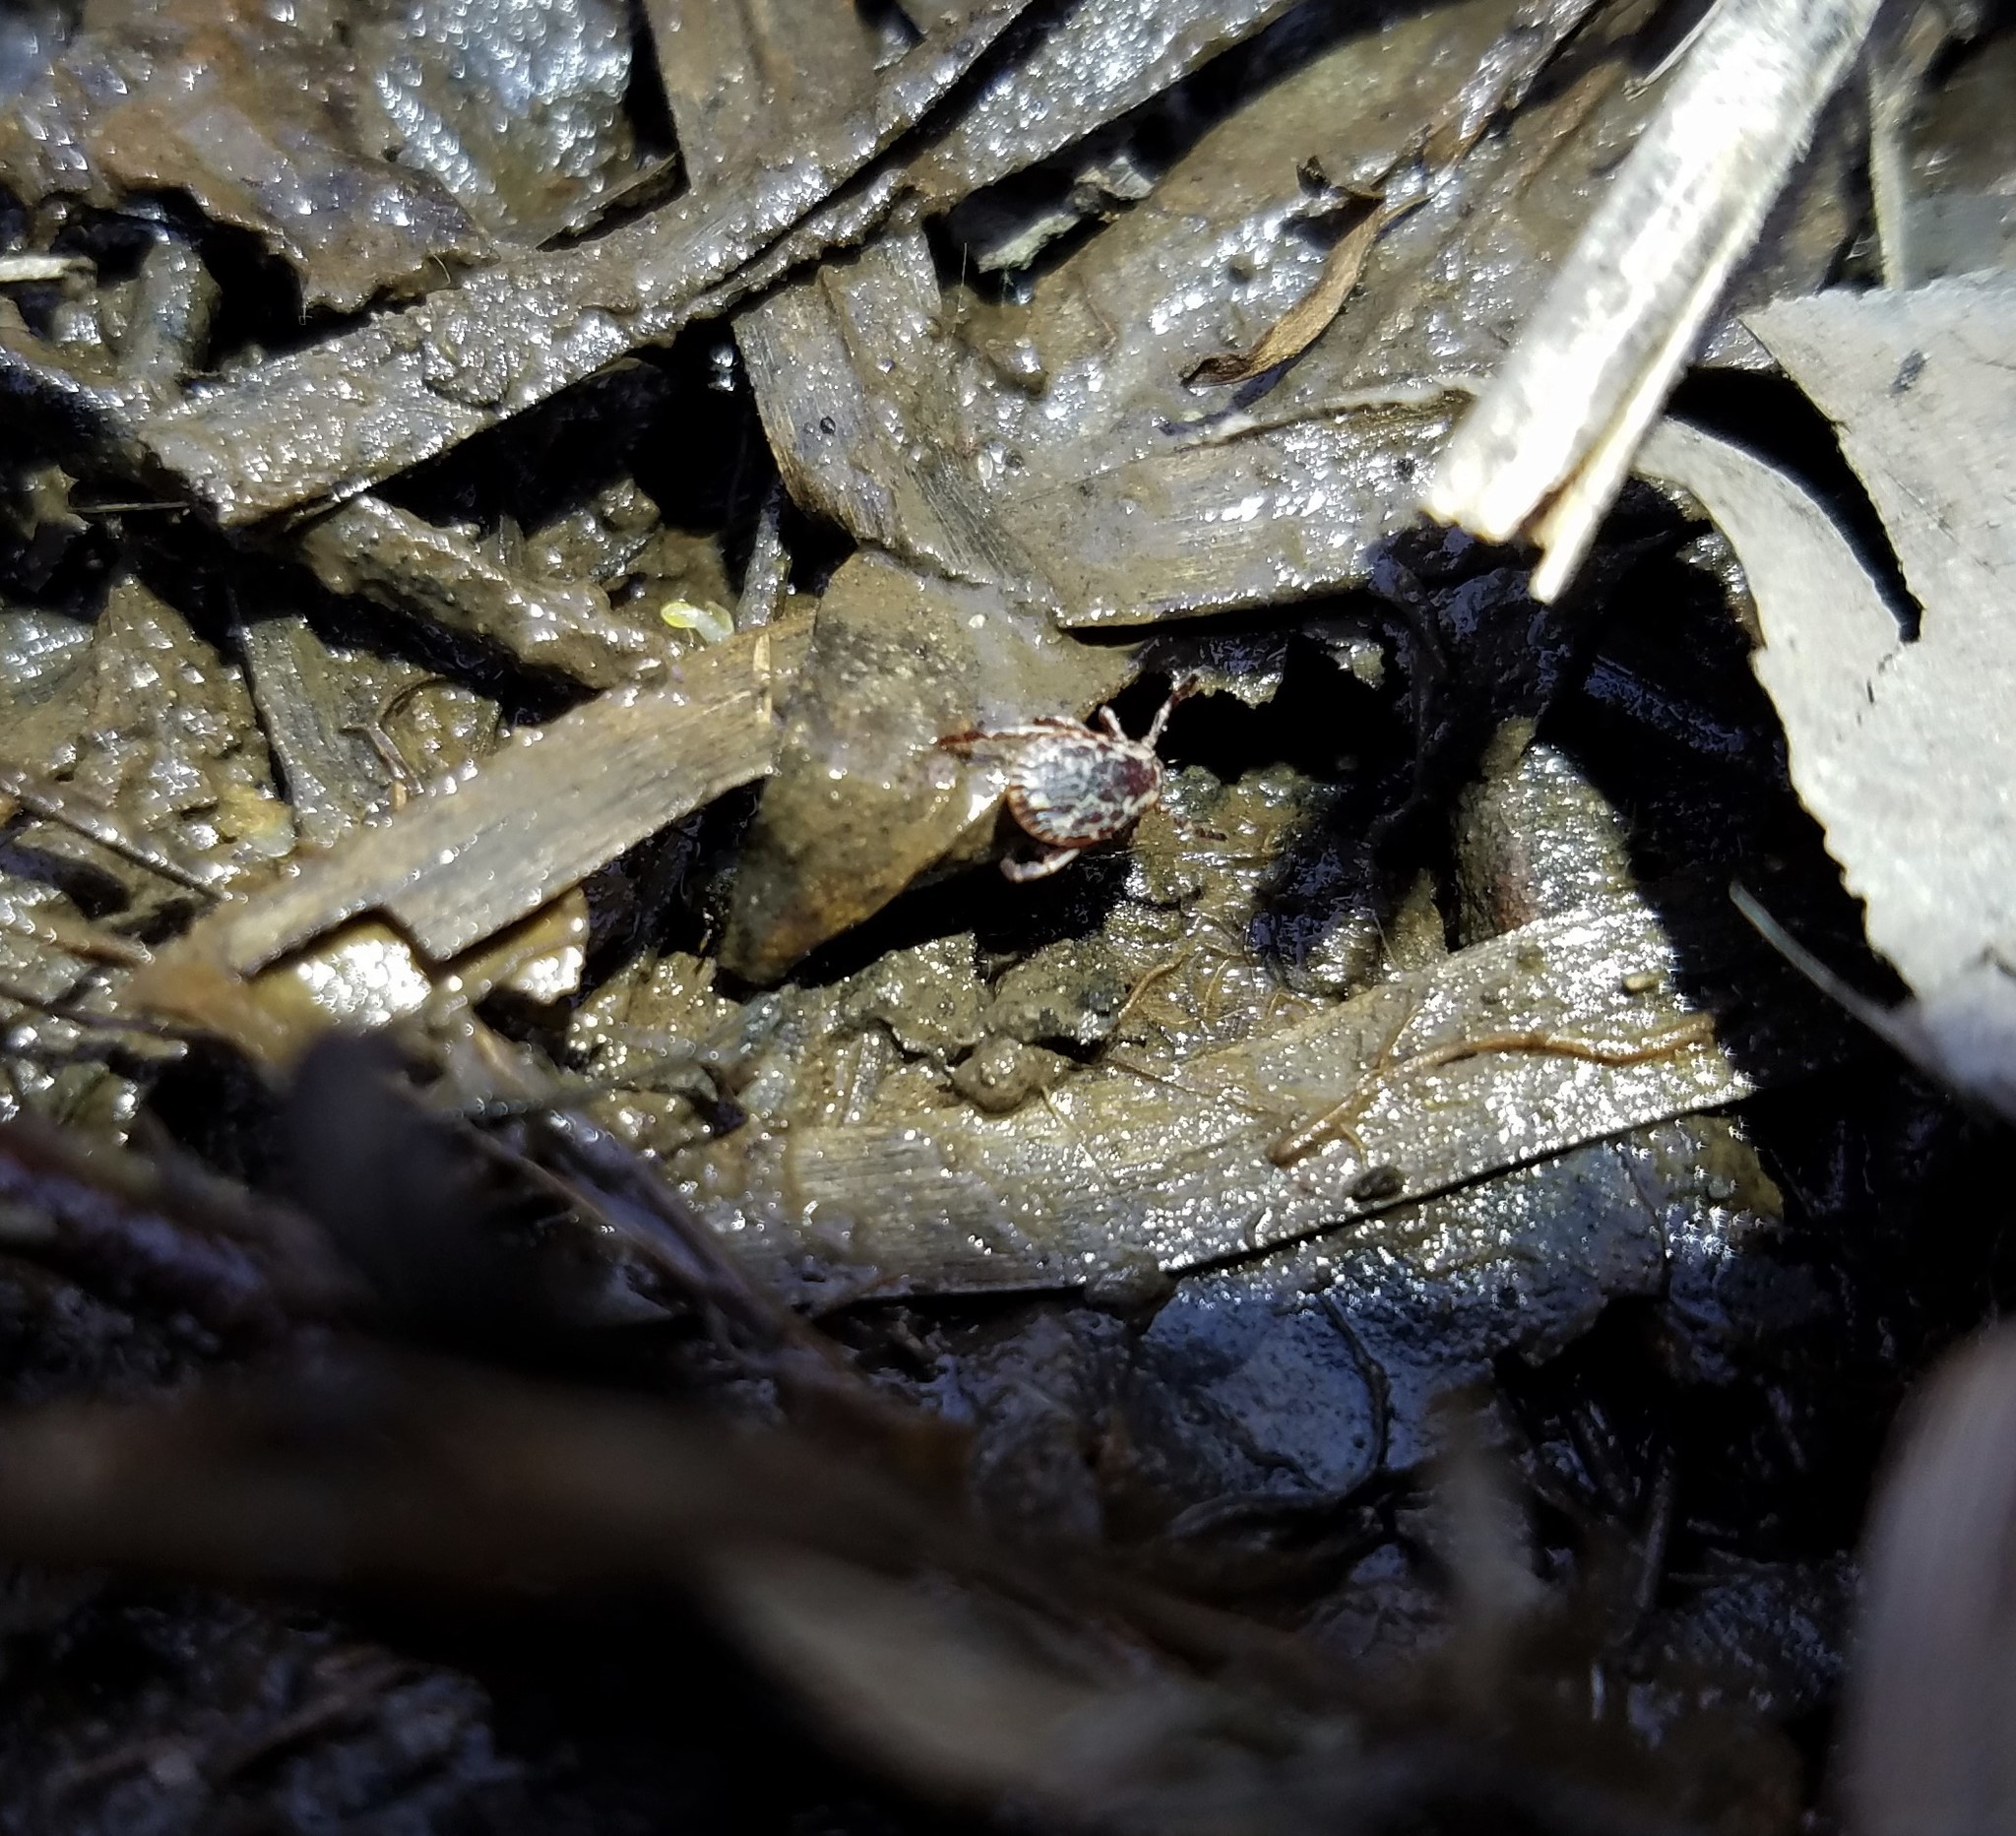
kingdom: Animalia
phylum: Arthropoda
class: Arachnida
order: Ixodida
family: Ixodidae
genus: Dermacentor
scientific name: Dermacentor variabilis
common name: American dog tick
